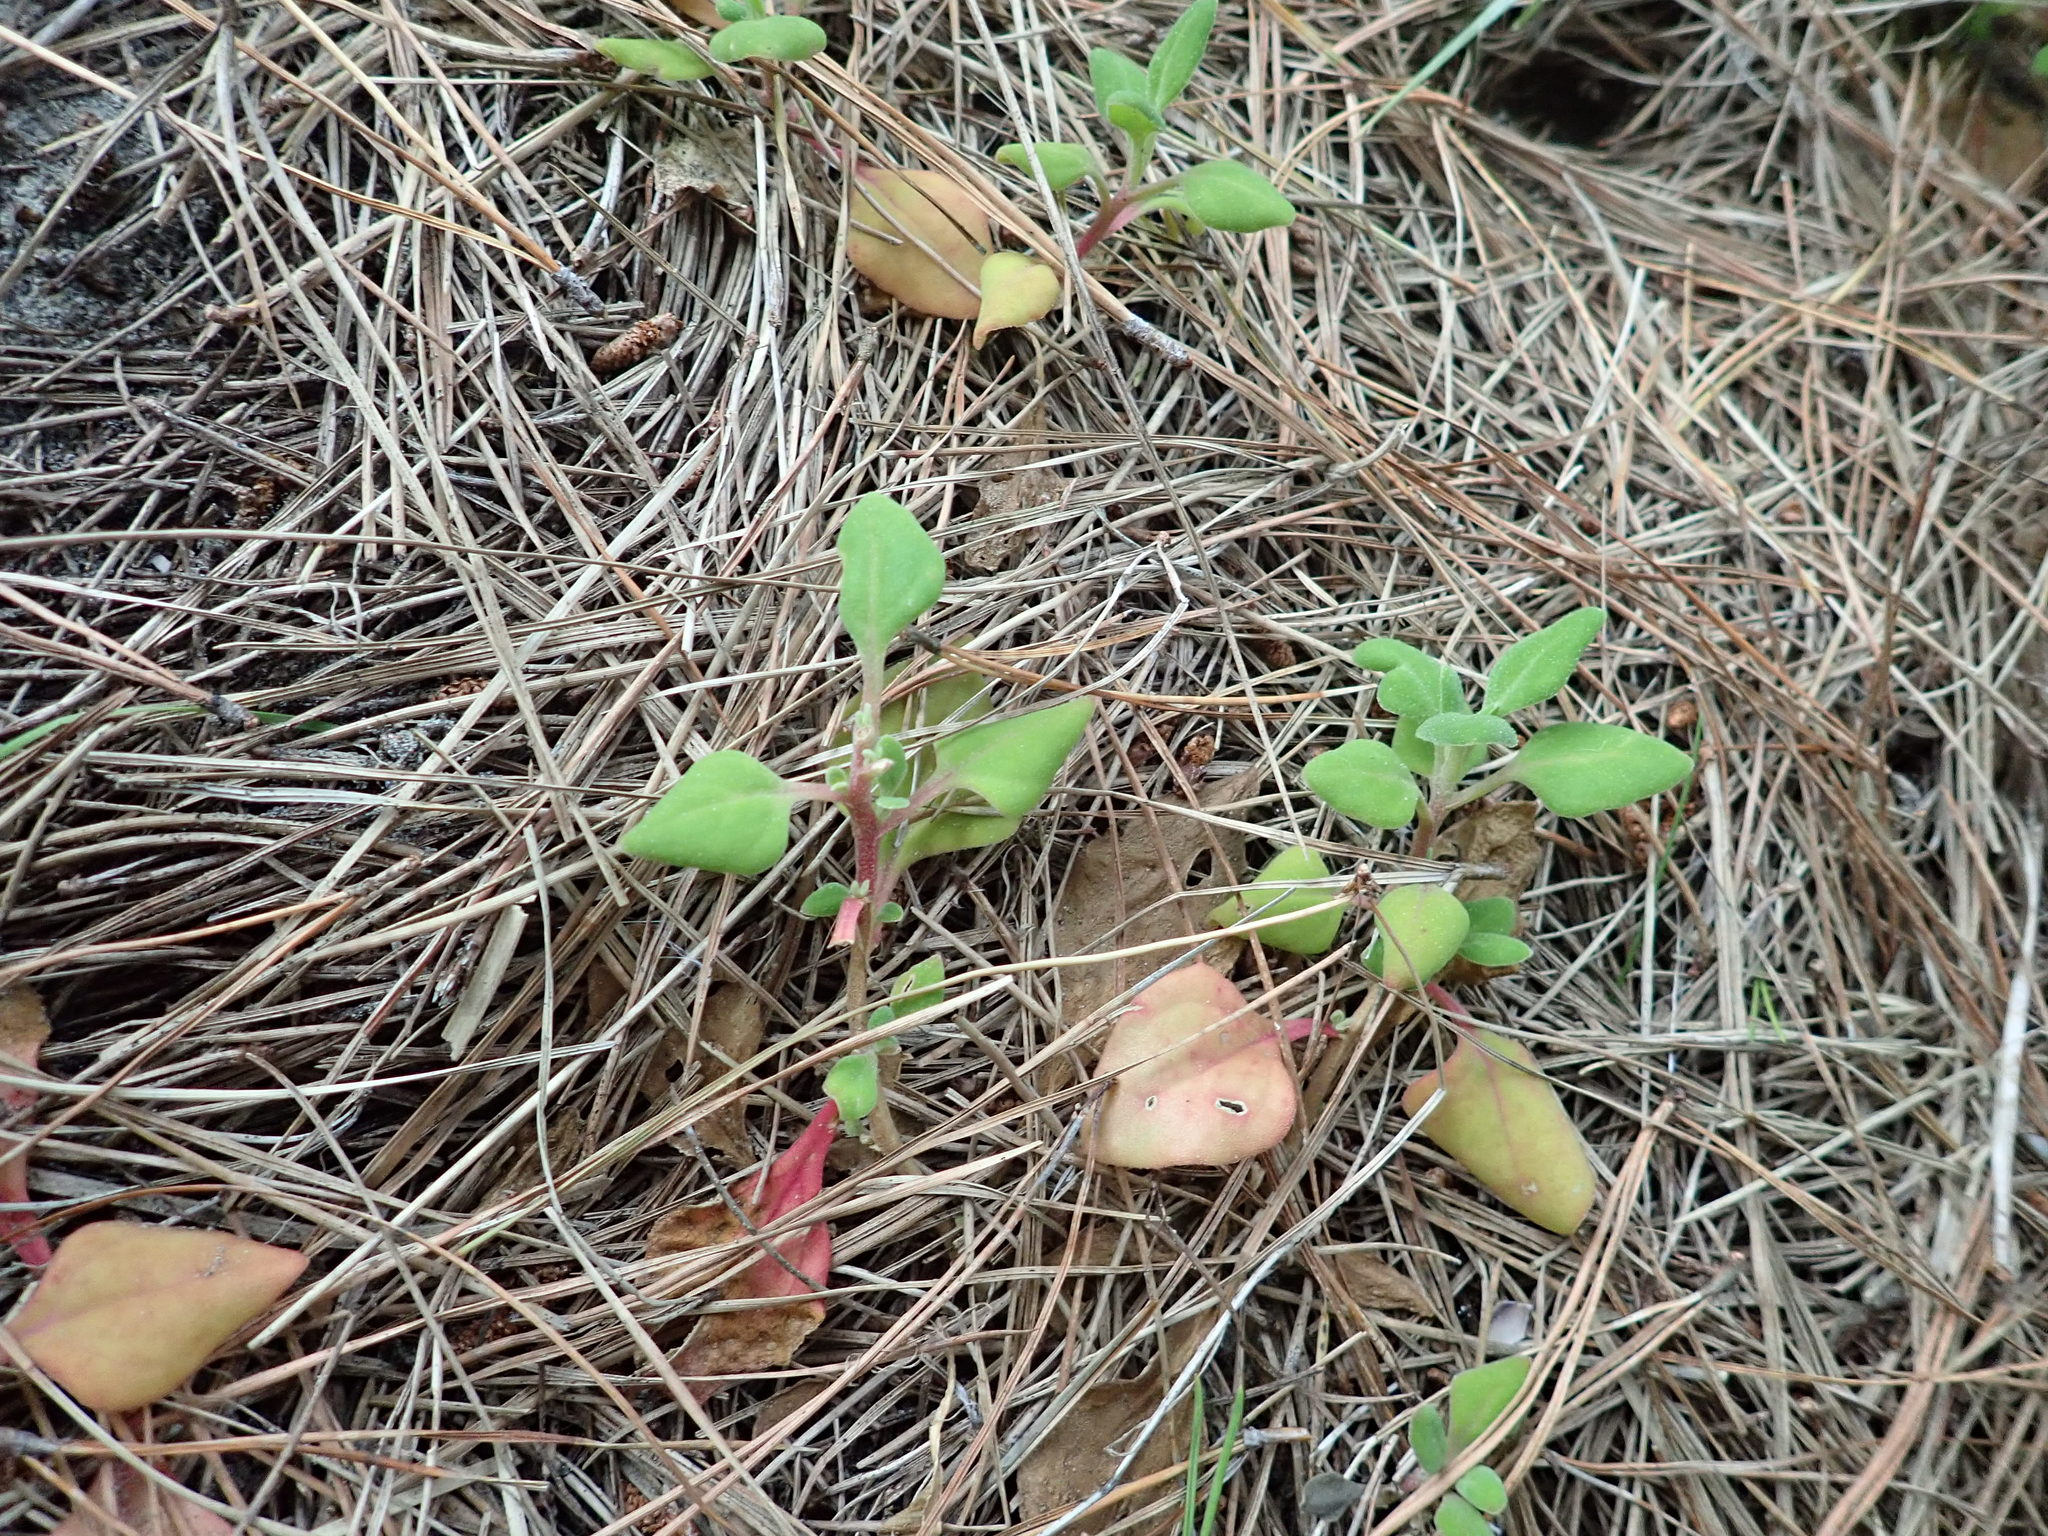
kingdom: Plantae
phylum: Tracheophyta
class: Magnoliopsida
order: Caryophyllales
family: Aizoaceae
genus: Tetragonia
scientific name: Tetragonia implexicoma
